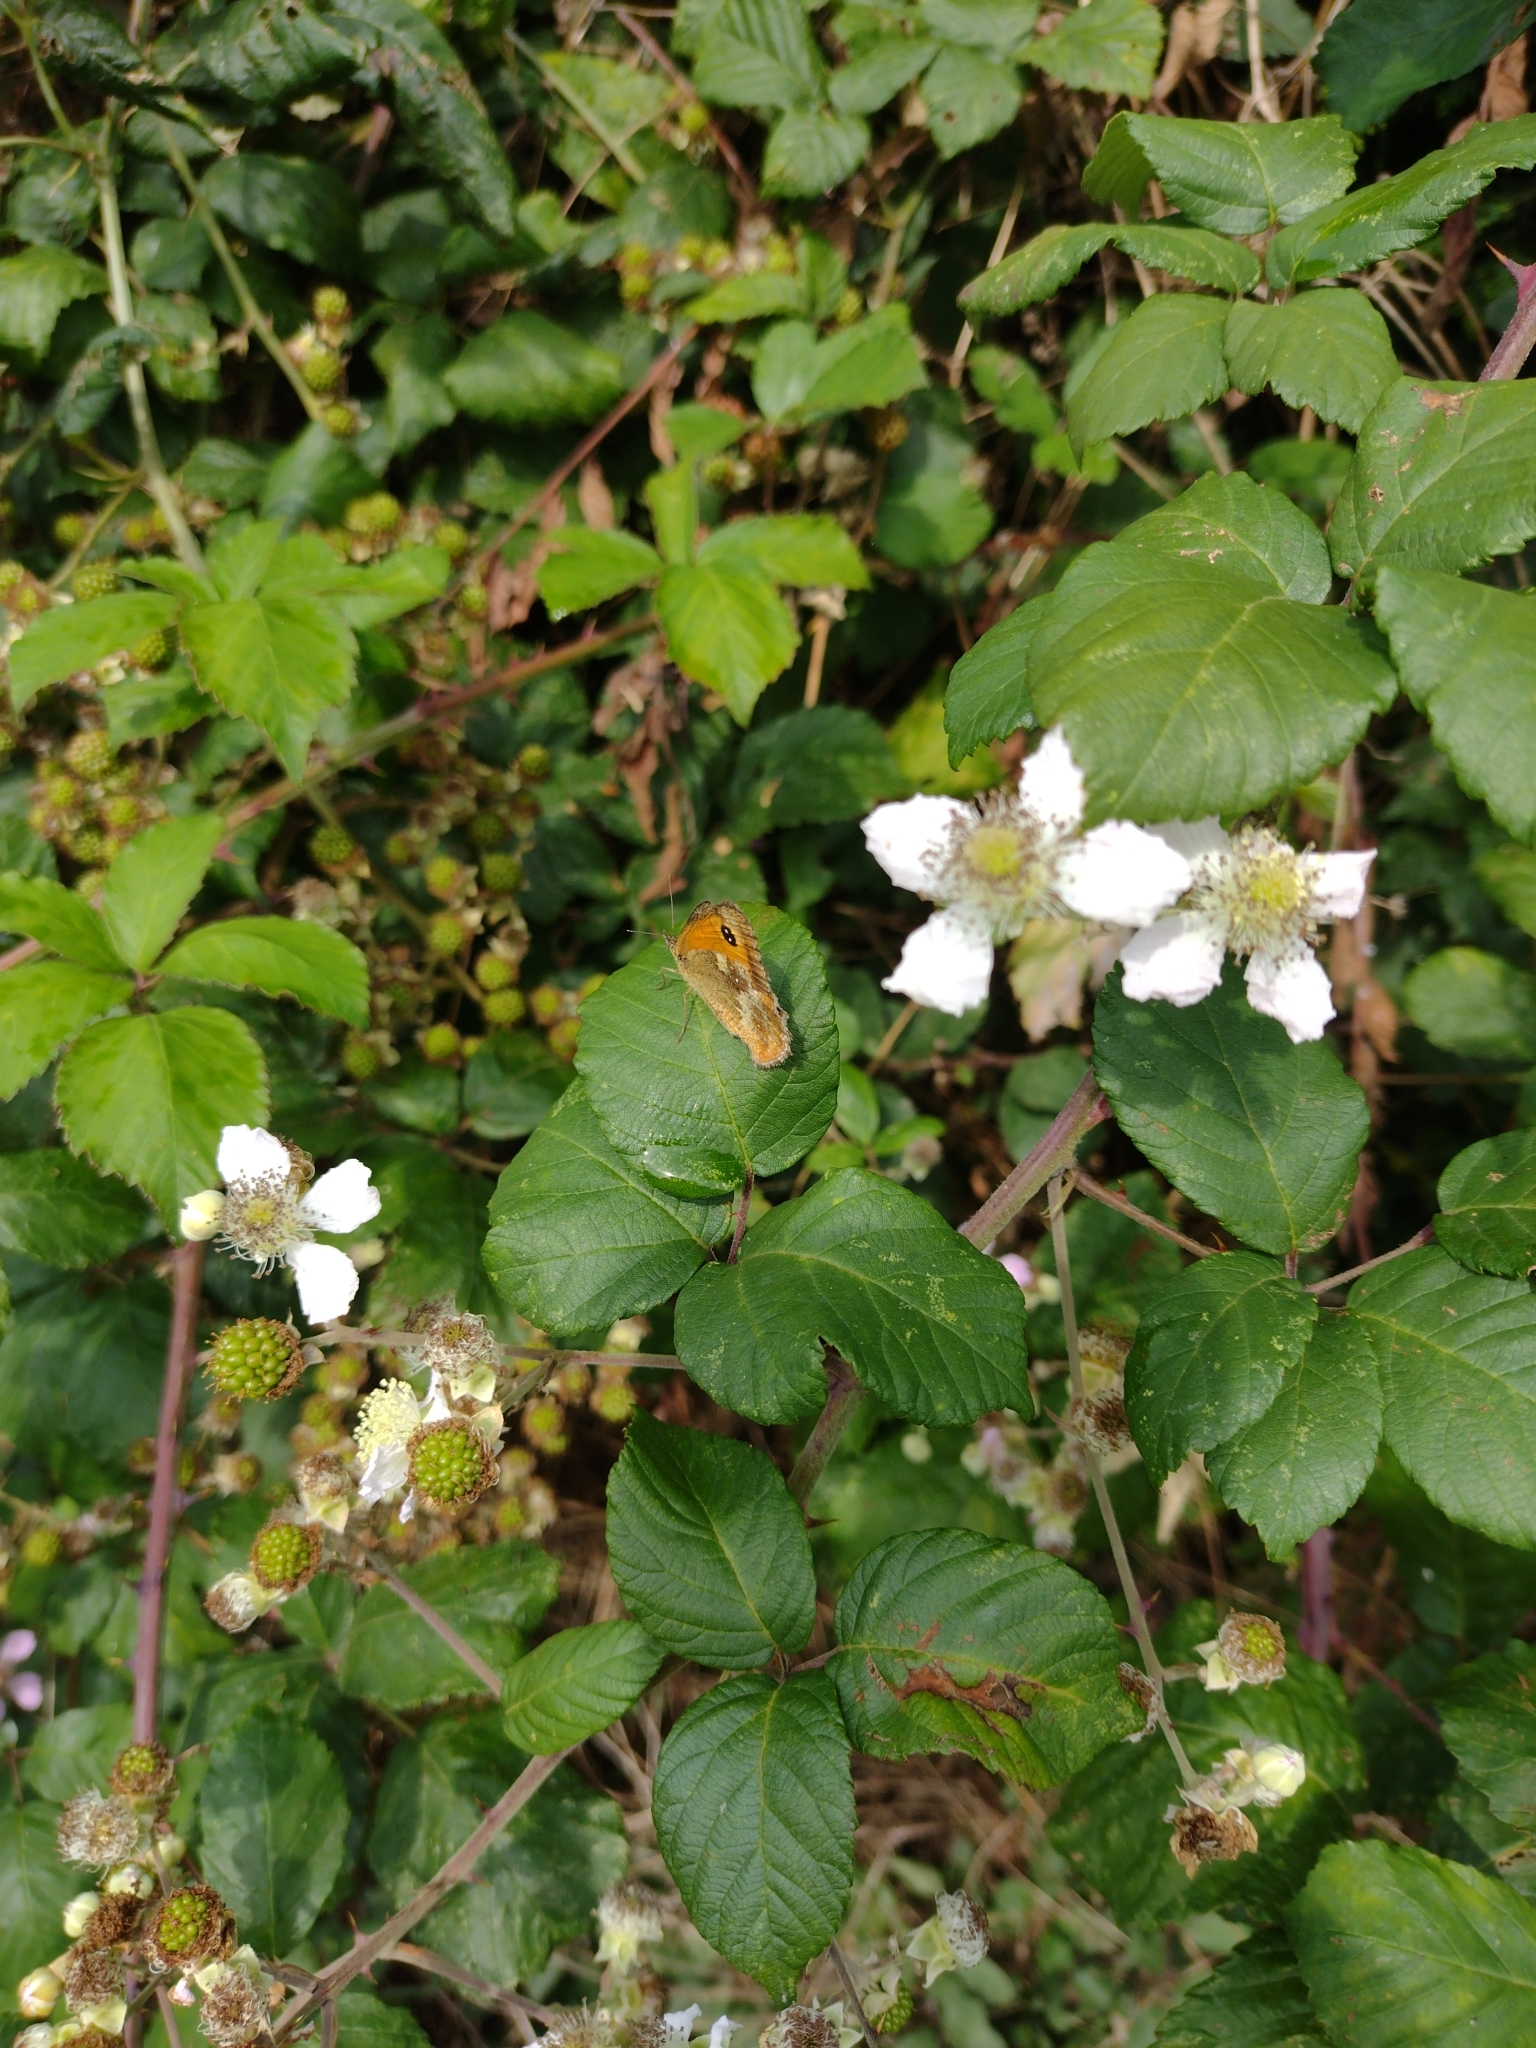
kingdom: Animalia
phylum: Arthropoda
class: Insecta
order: Lepidoptera
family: Nymphalidae
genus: Pyronia
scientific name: Pyronia tithonus
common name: Gatekeeper
